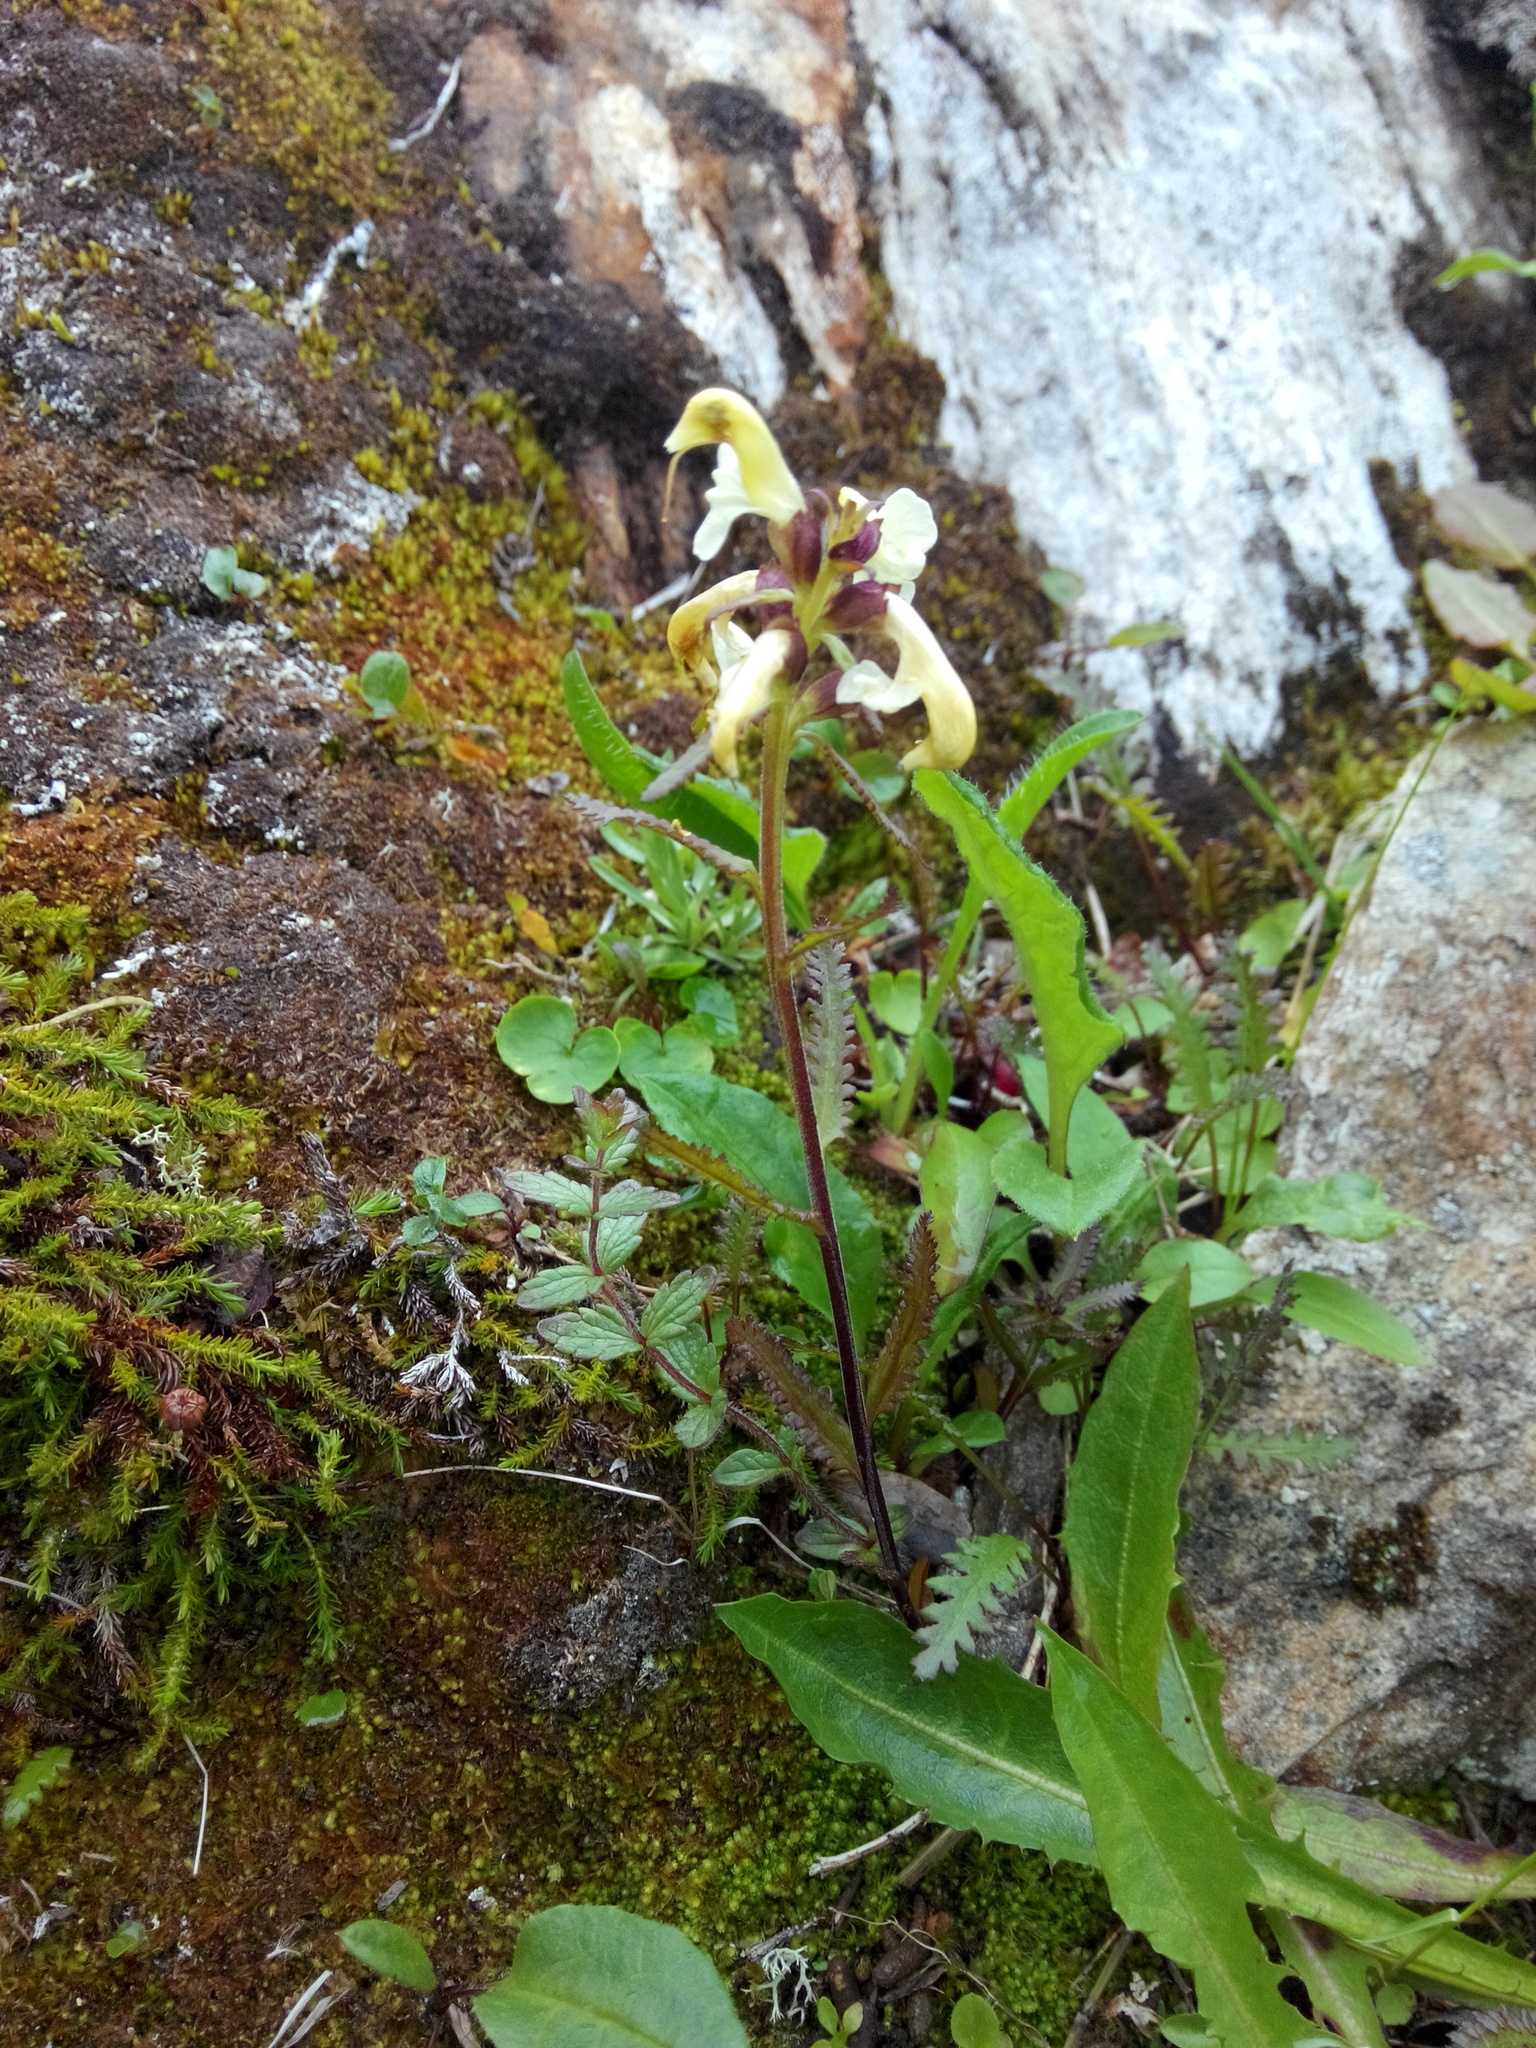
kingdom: Plantae
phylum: Tracheophyta
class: Magnoliopsida
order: Lamiales
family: Orobanchaceae
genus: Pedicularis
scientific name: Pedicularis lapponica
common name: Lapland lousewort
